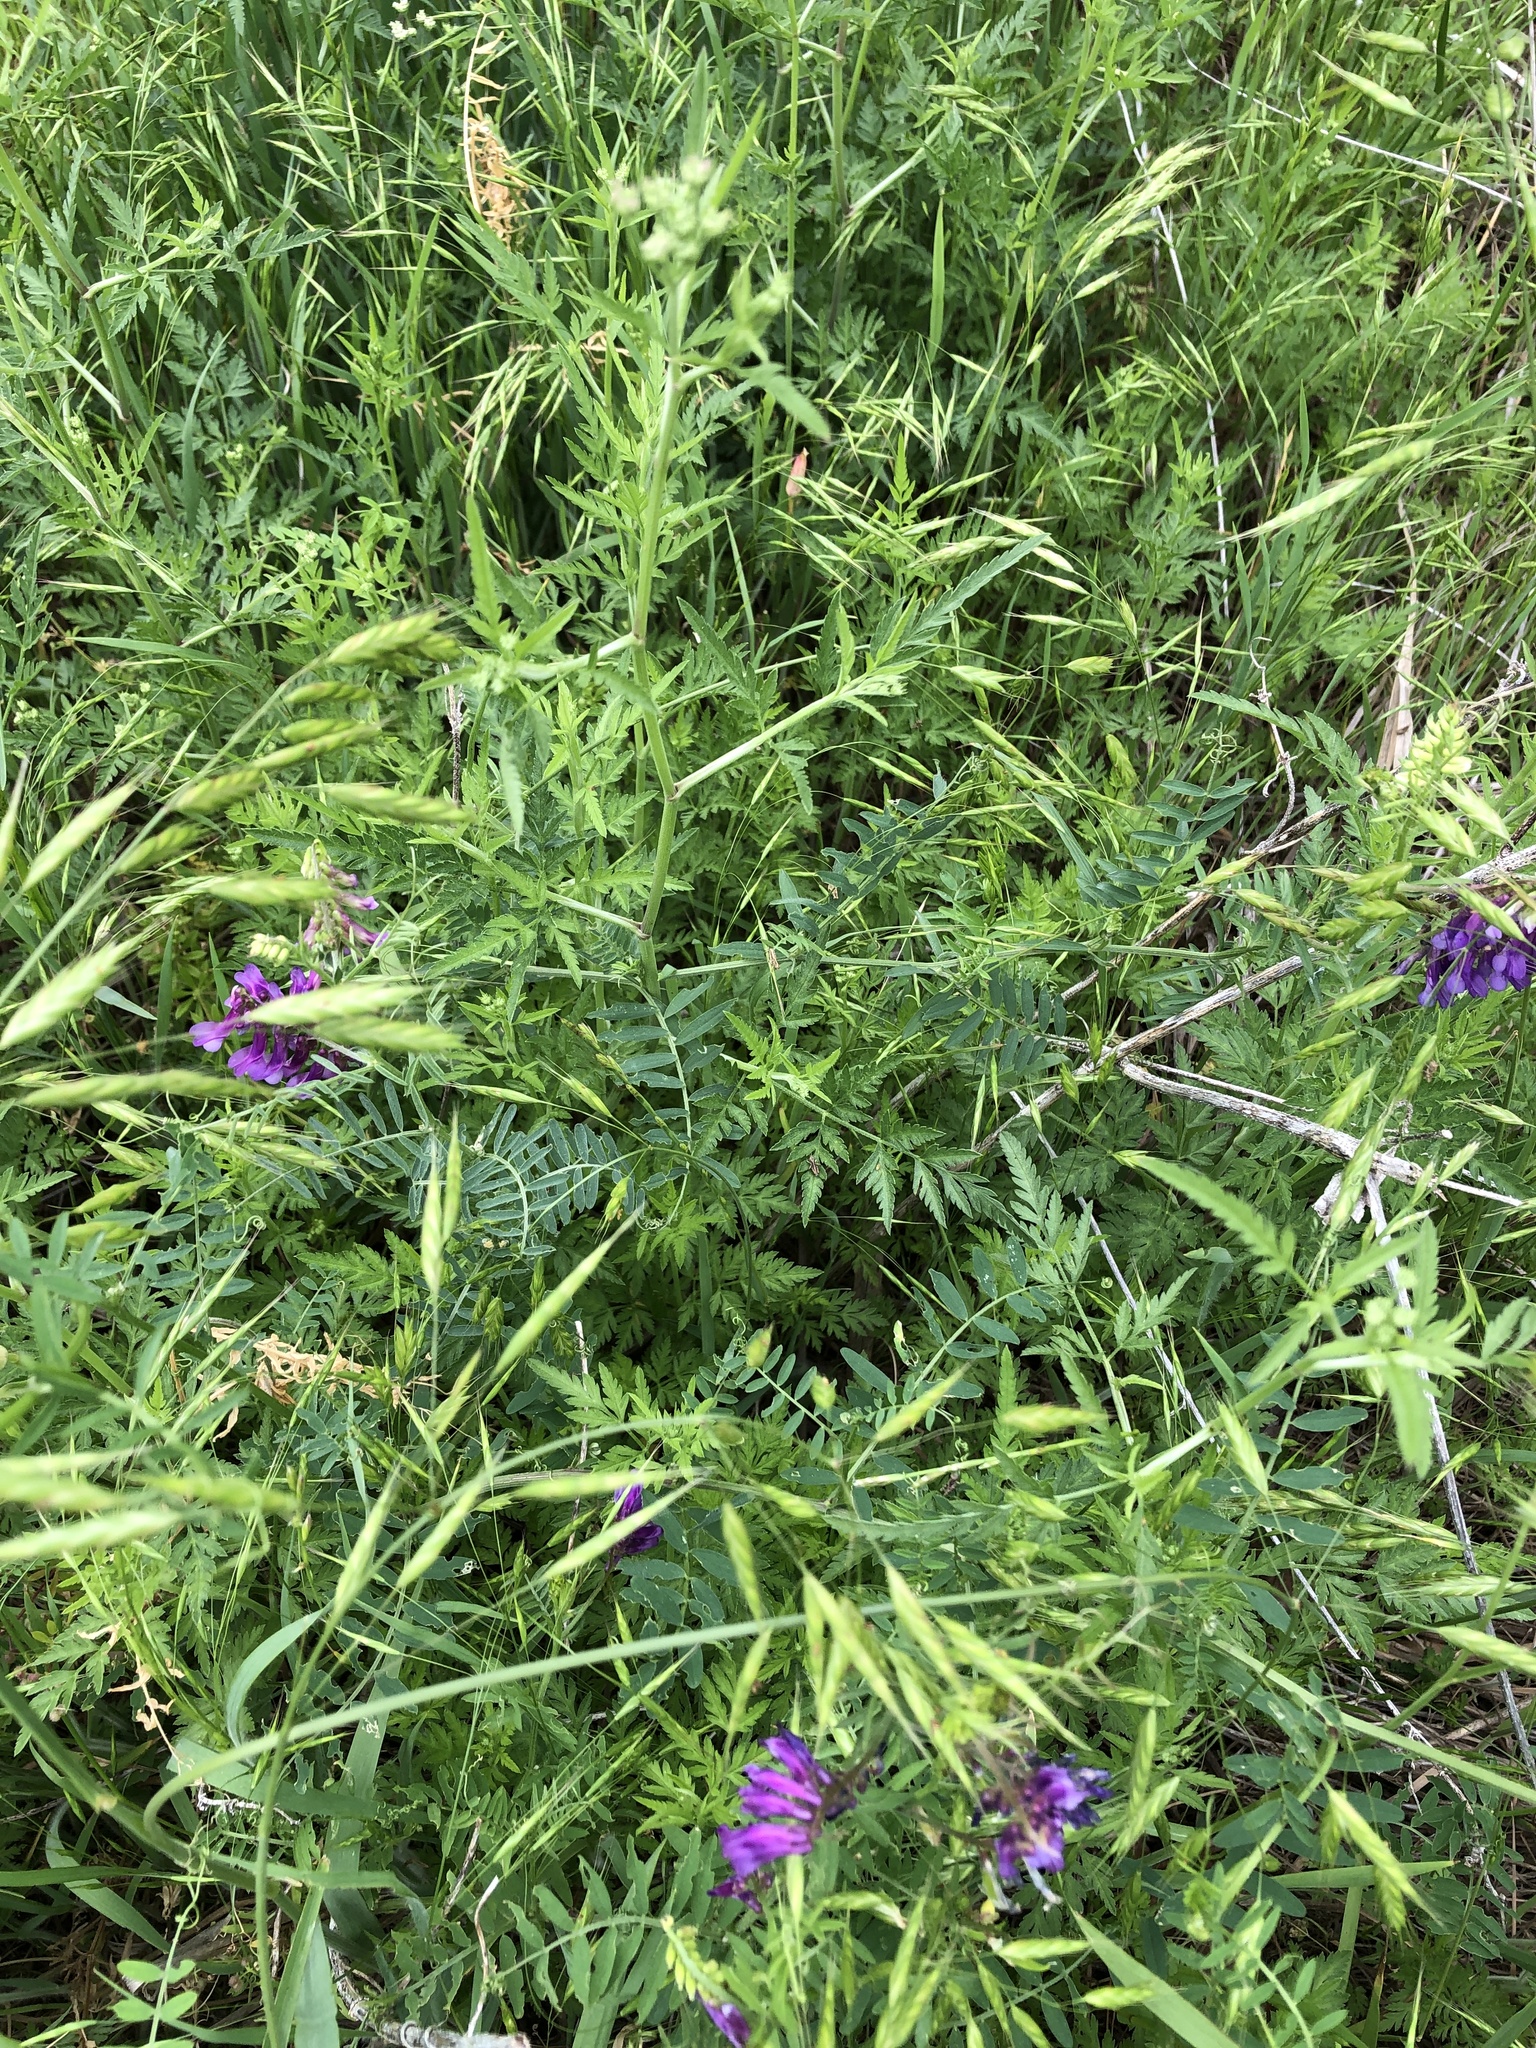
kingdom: Plantae
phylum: Tracheophyta
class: Magnoliopsida
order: Fabales
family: Fabaceae
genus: Vicia
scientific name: Vicia villosa
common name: Fodder vetch
